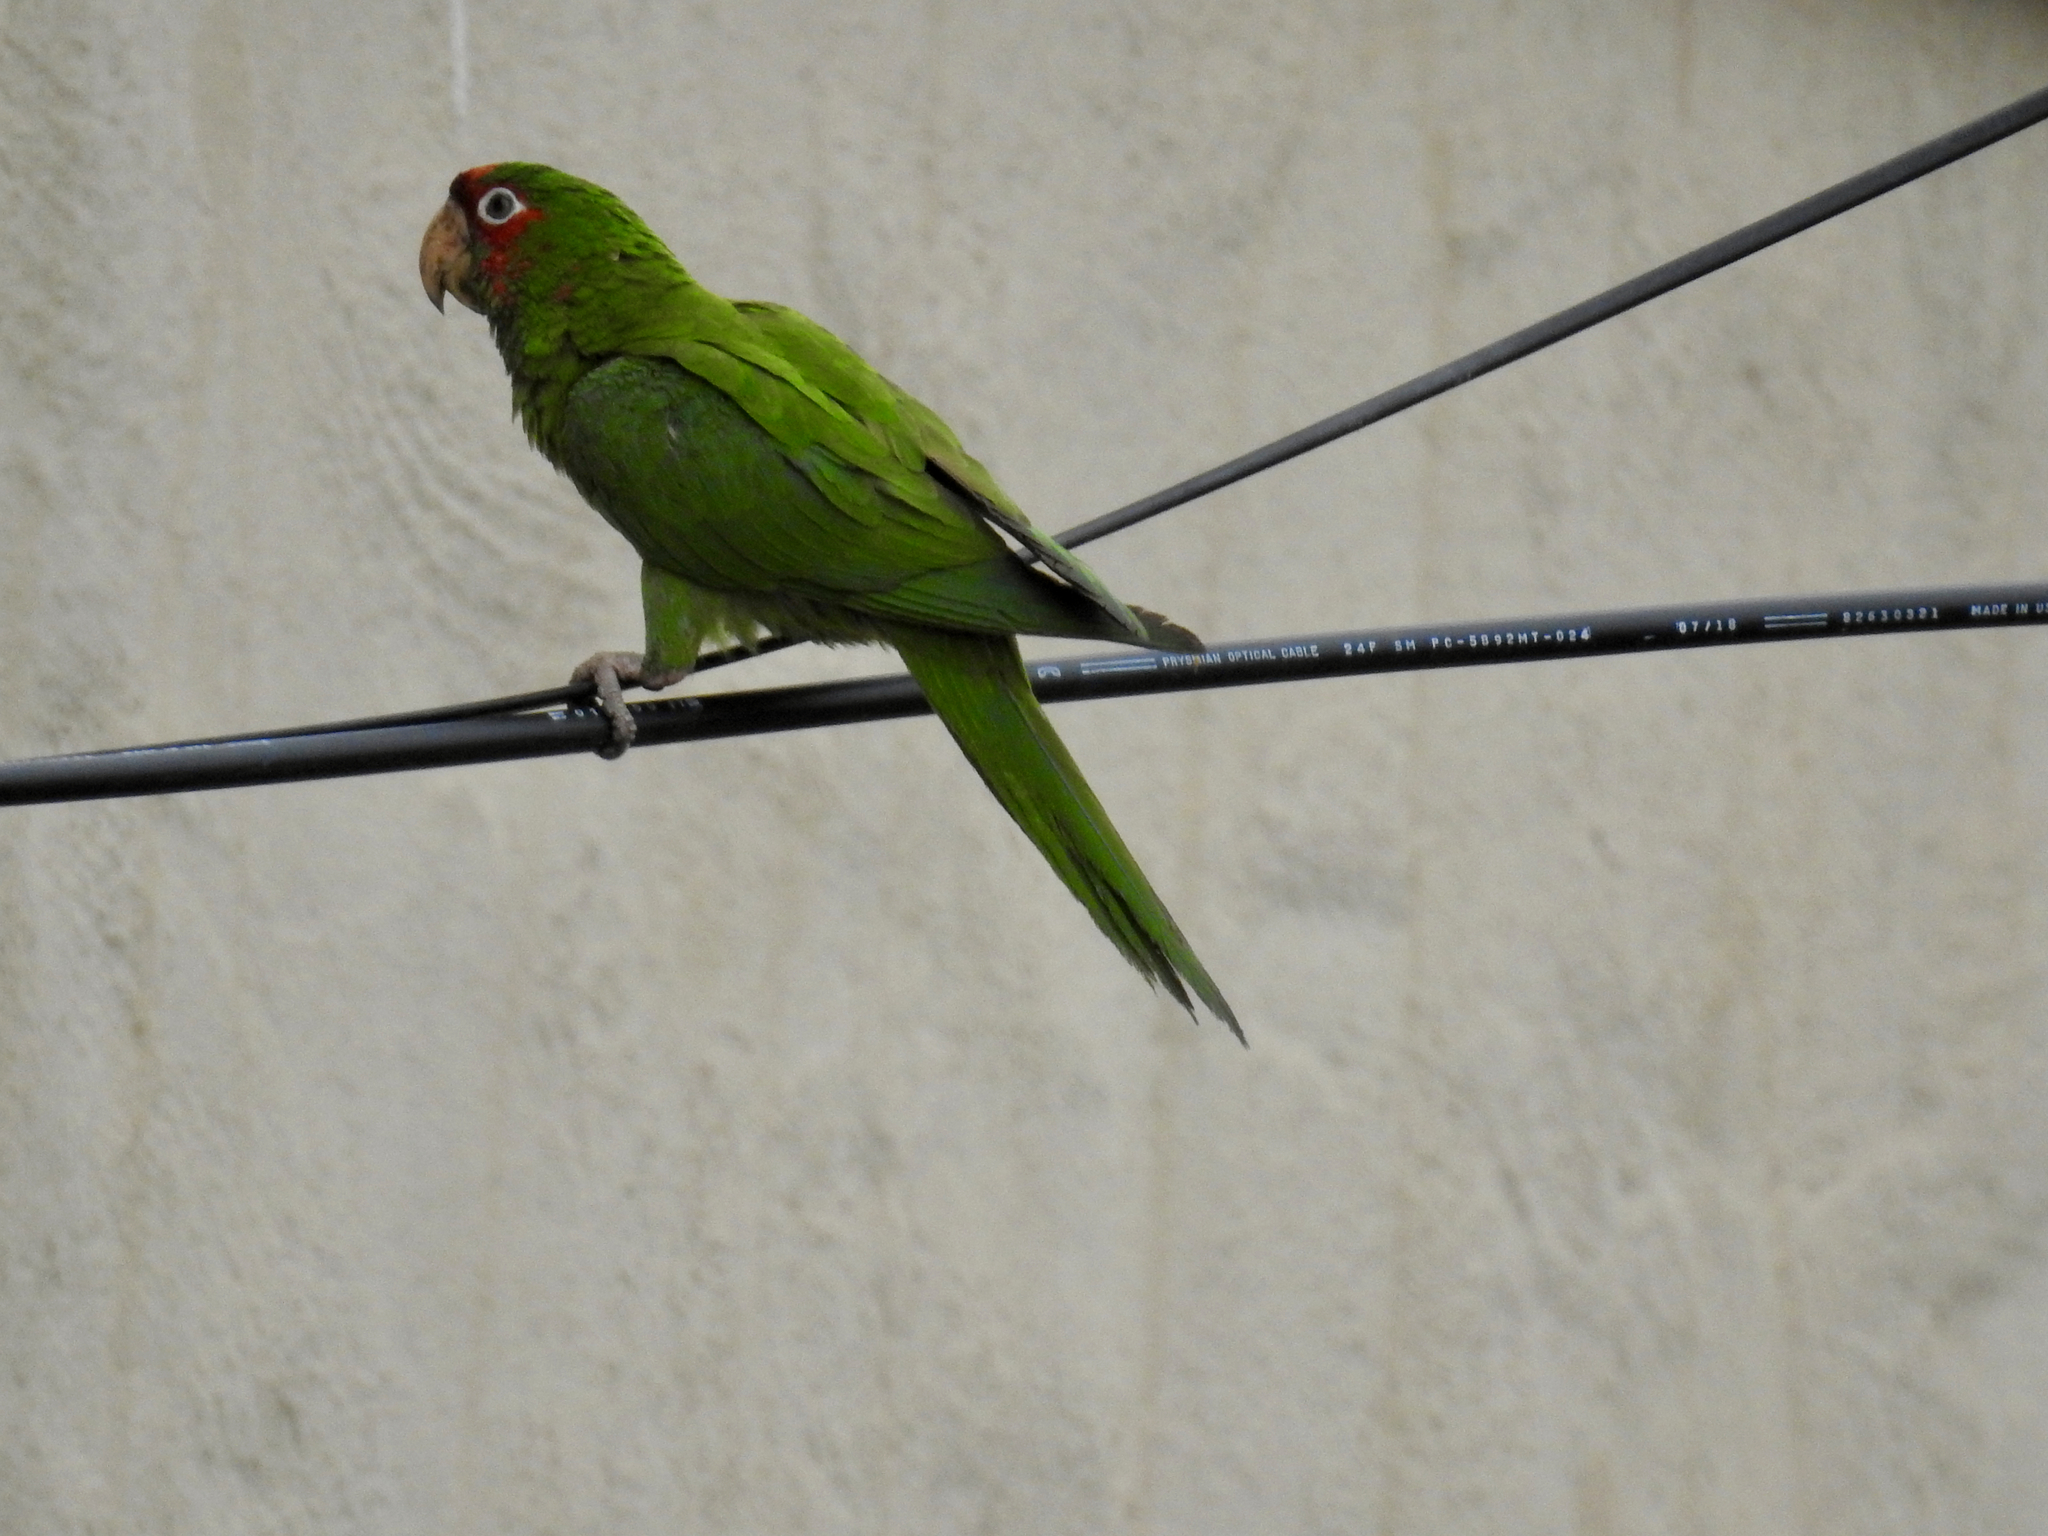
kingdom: Animalia
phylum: Chordata
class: Aves
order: Psittaciformes
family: Psittacidae
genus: Aratinga
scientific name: Aratinga mitrata
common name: Mitred parakeet
